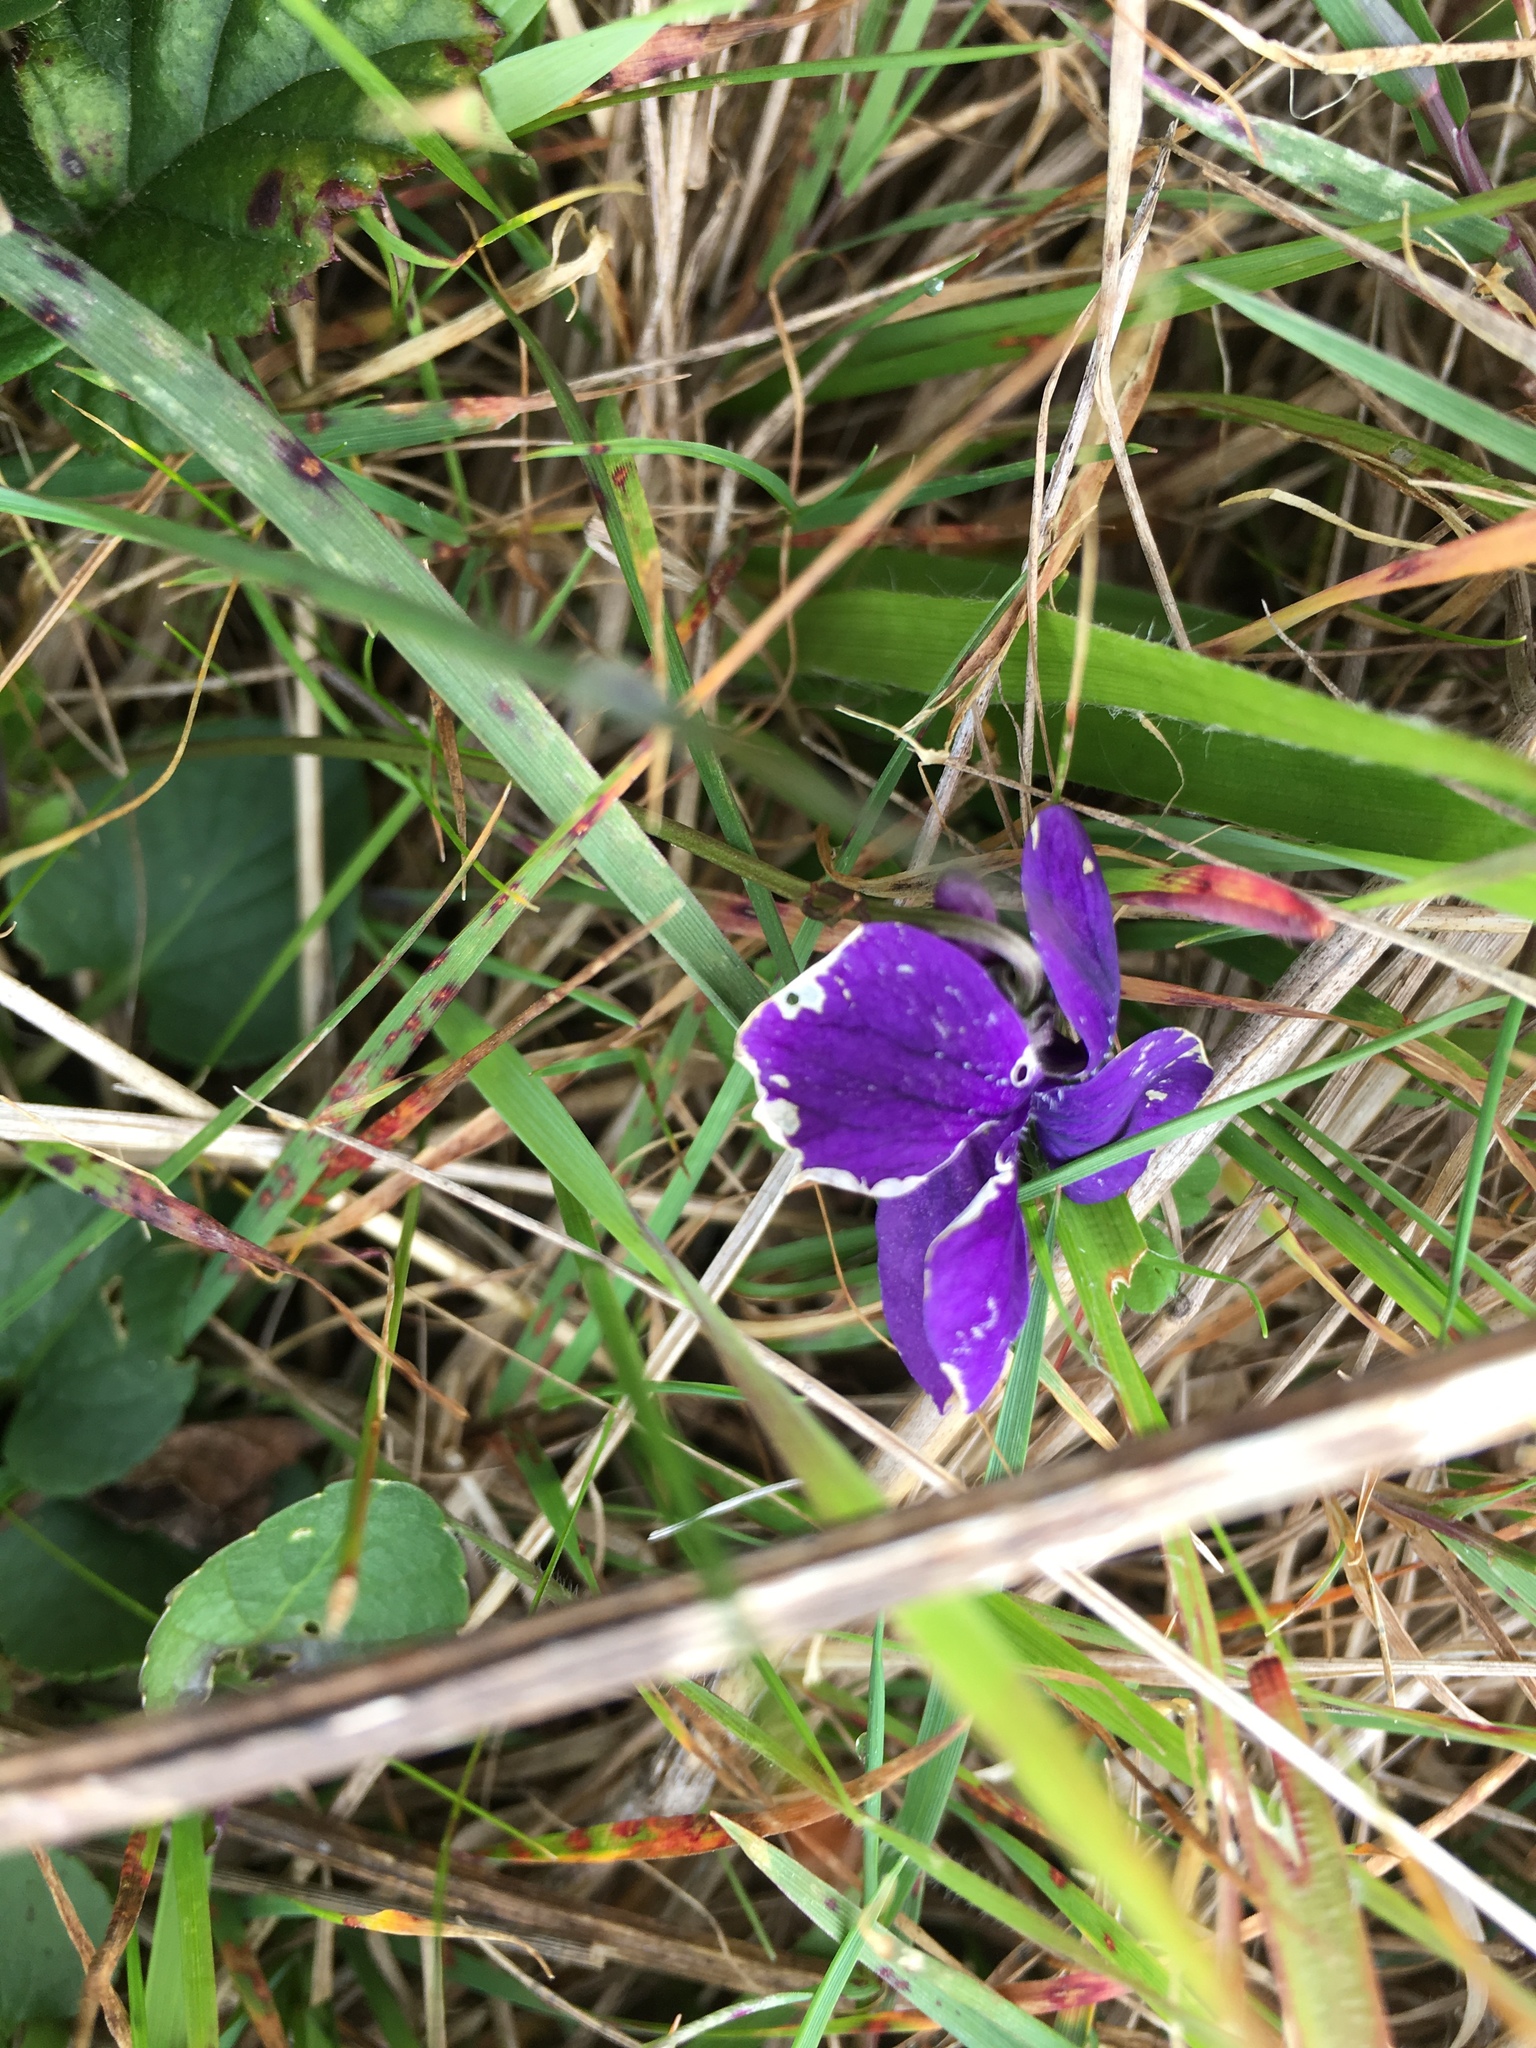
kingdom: Plantae
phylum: Tracheophyta
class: Magnoliopsida
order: Malpighiales
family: Violaceae
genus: Viola
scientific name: Viola adunca
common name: Sand violet
